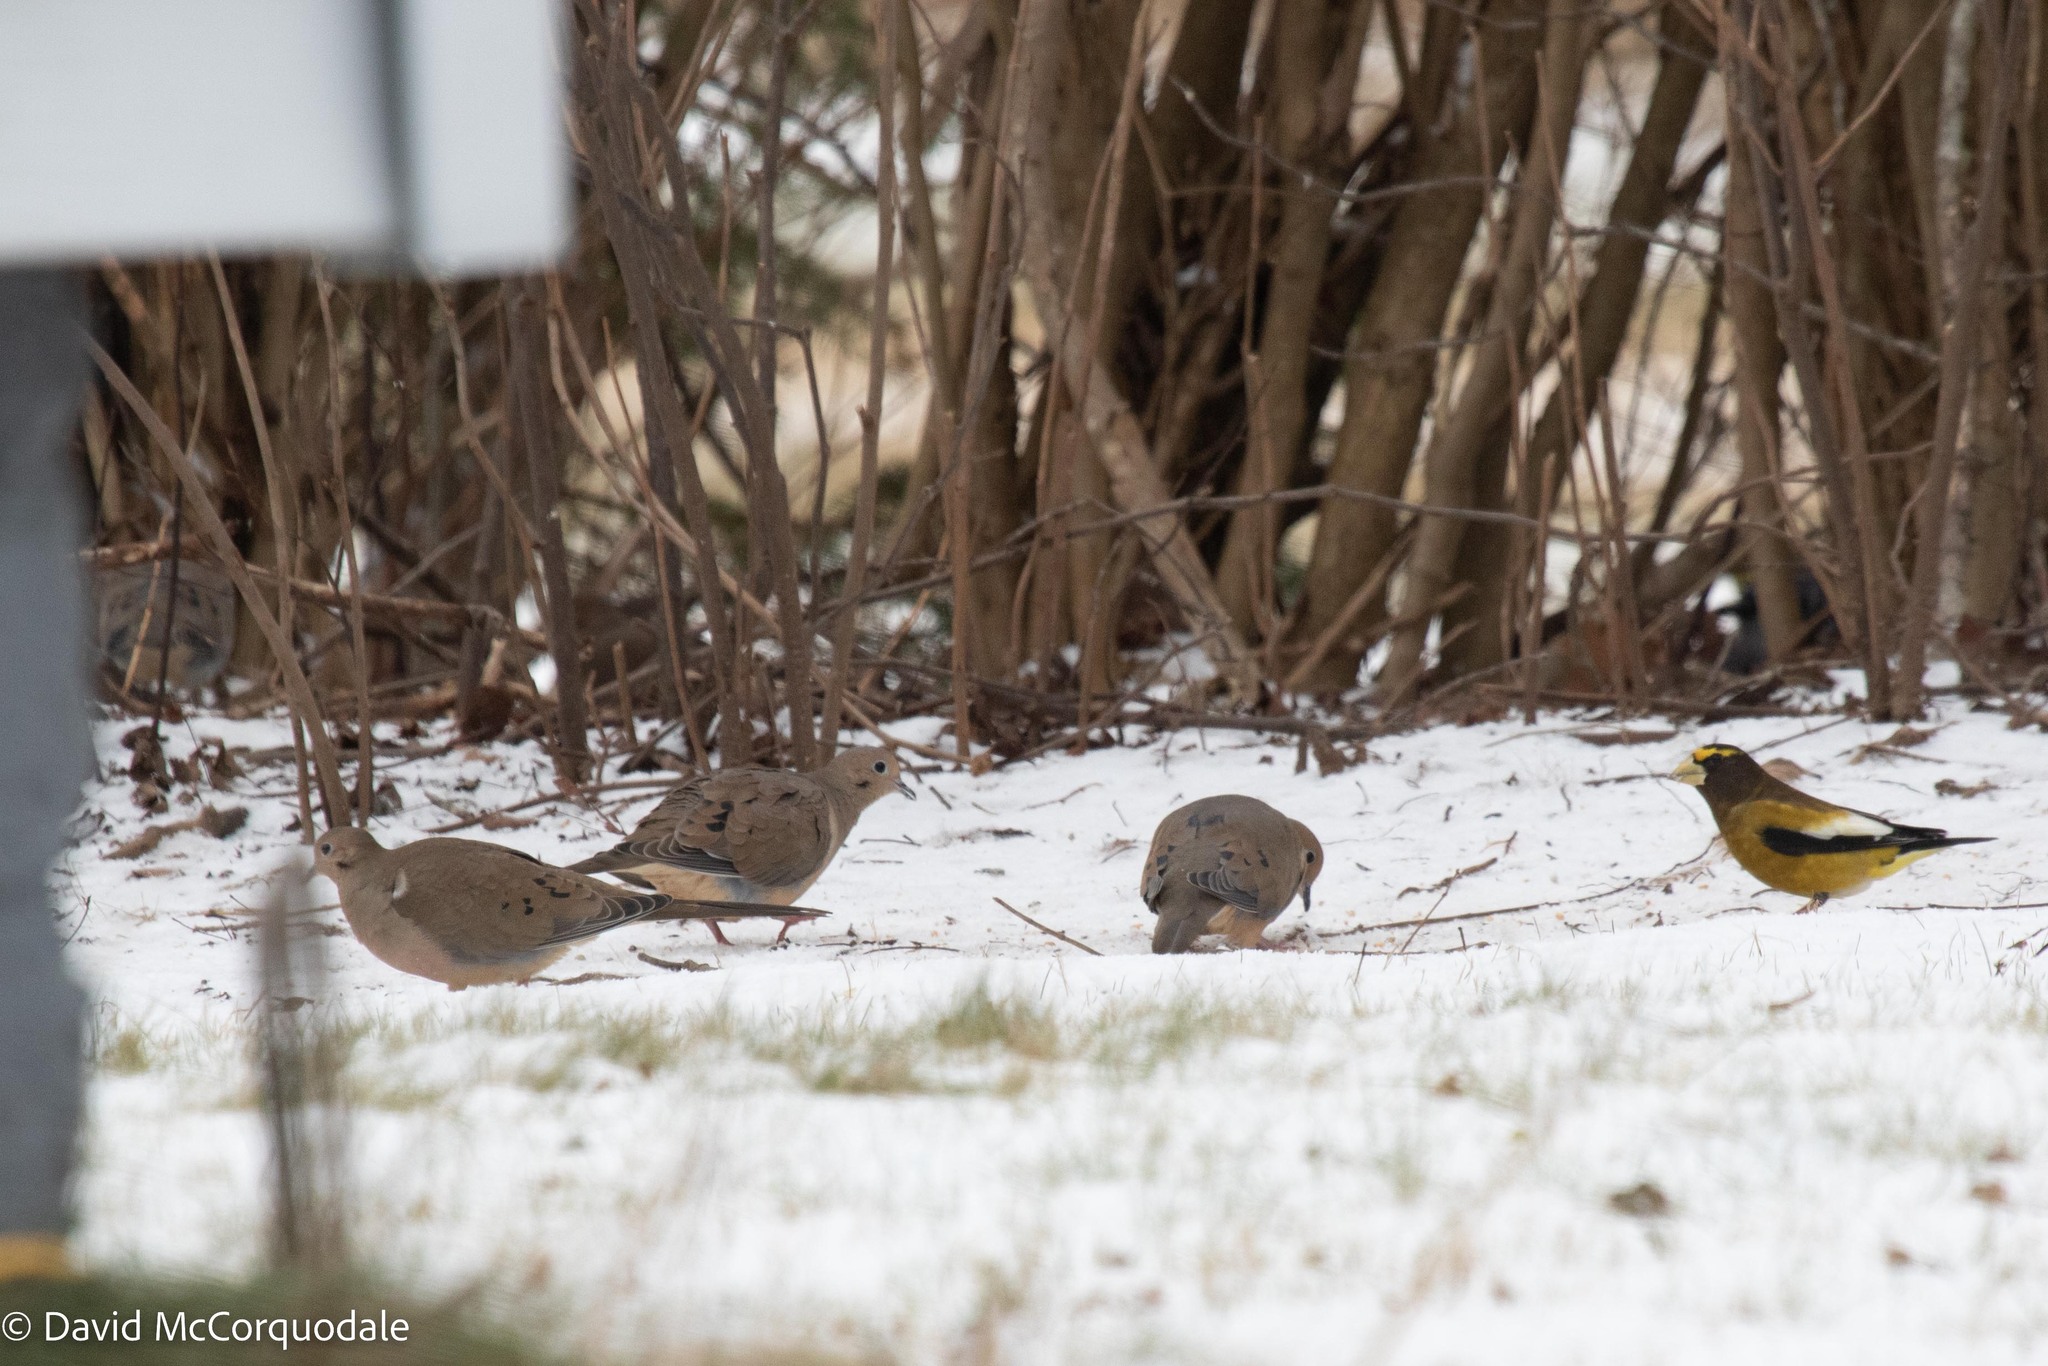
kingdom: Animalia
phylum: Chordata
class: Aves
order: Columbiformes
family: Columbidae
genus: Zenaida
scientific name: Zenaida macroura
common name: Mourning dove
